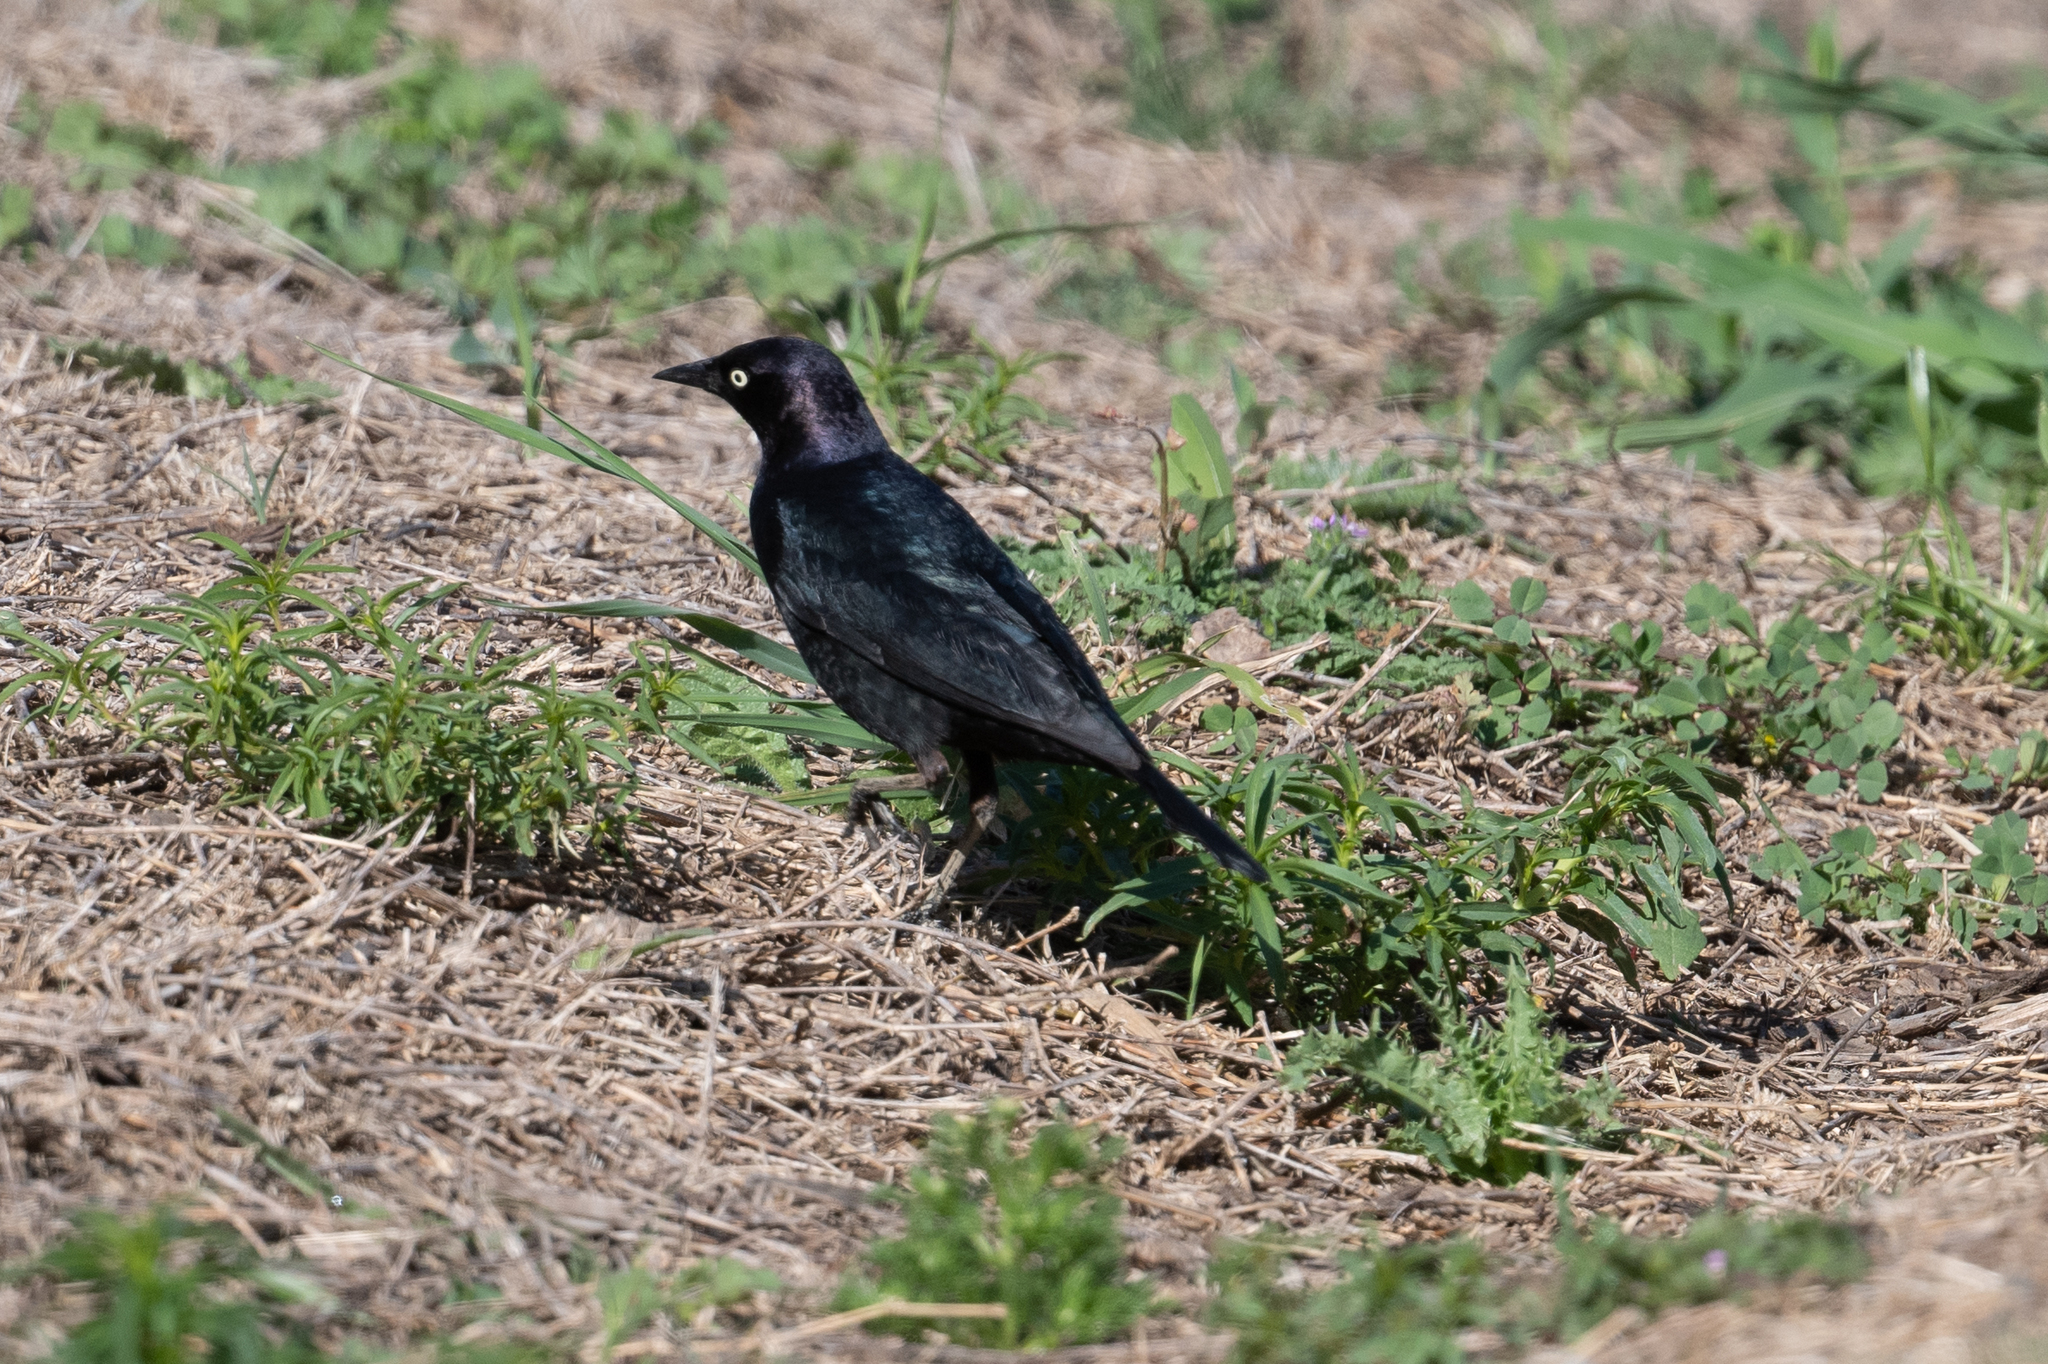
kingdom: Animalia
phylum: Chordata
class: Aves
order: Passeriformes
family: Icteridae
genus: Euphagus
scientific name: Euphagus cyanocephalus
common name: Brewer's blackbird
